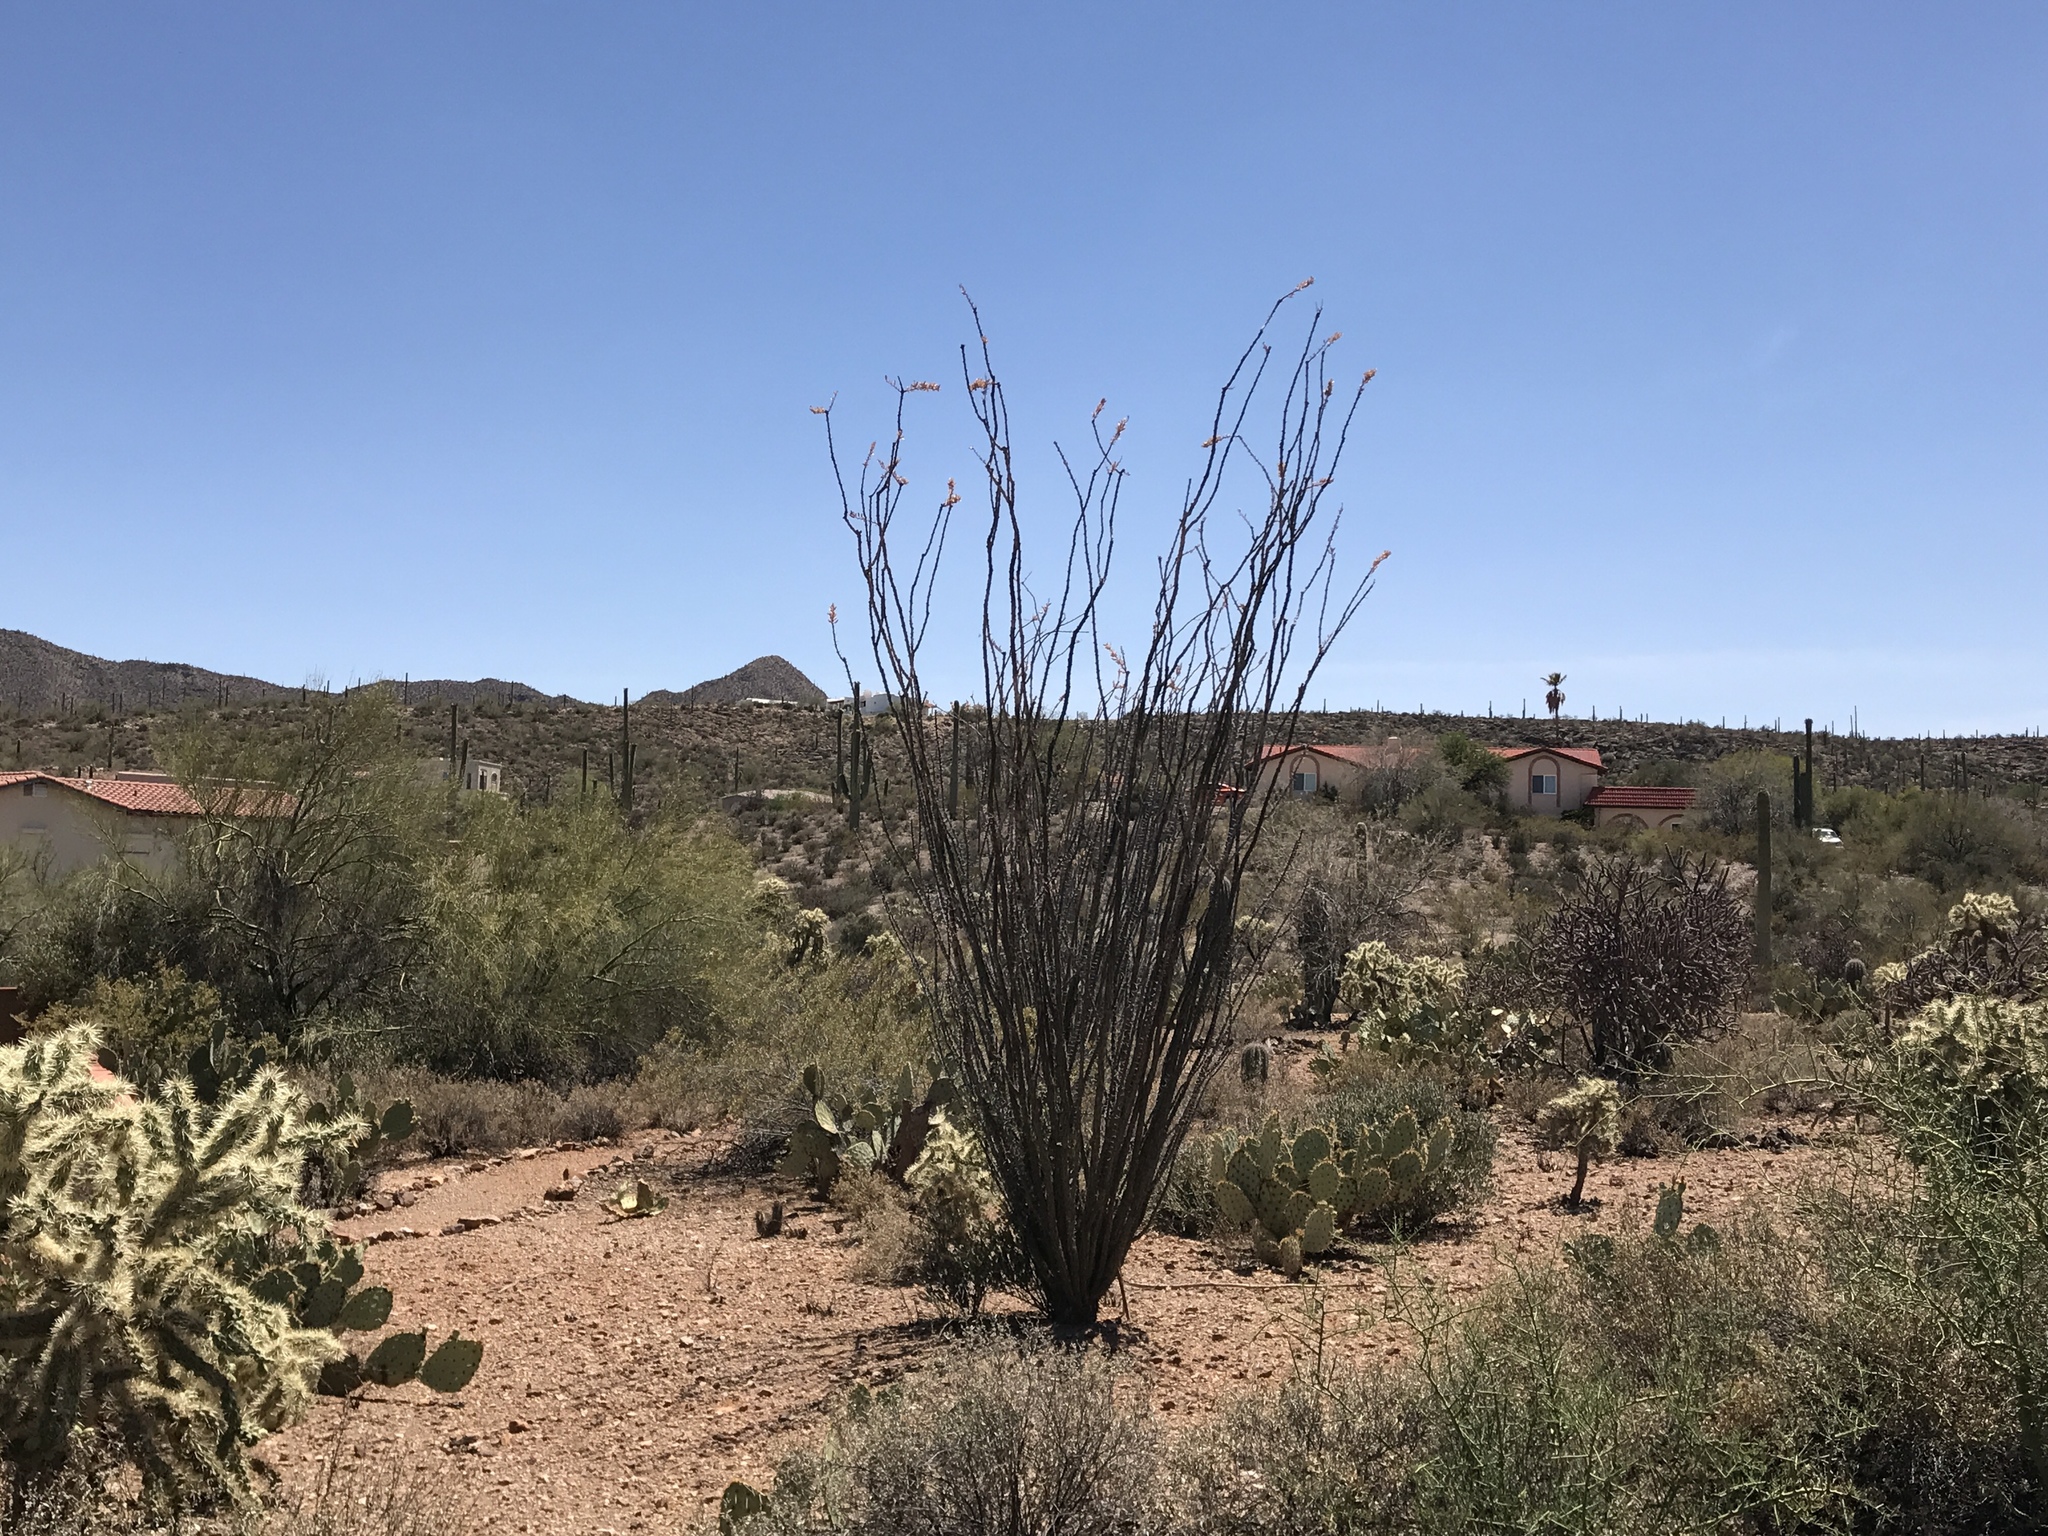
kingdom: Plantae
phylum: Tracheophyta
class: Magnoliopsida
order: Ericales
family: Fouquieriaceae
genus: Fouquieria
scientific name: Fouquieria splendens
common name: Vine-cactus
